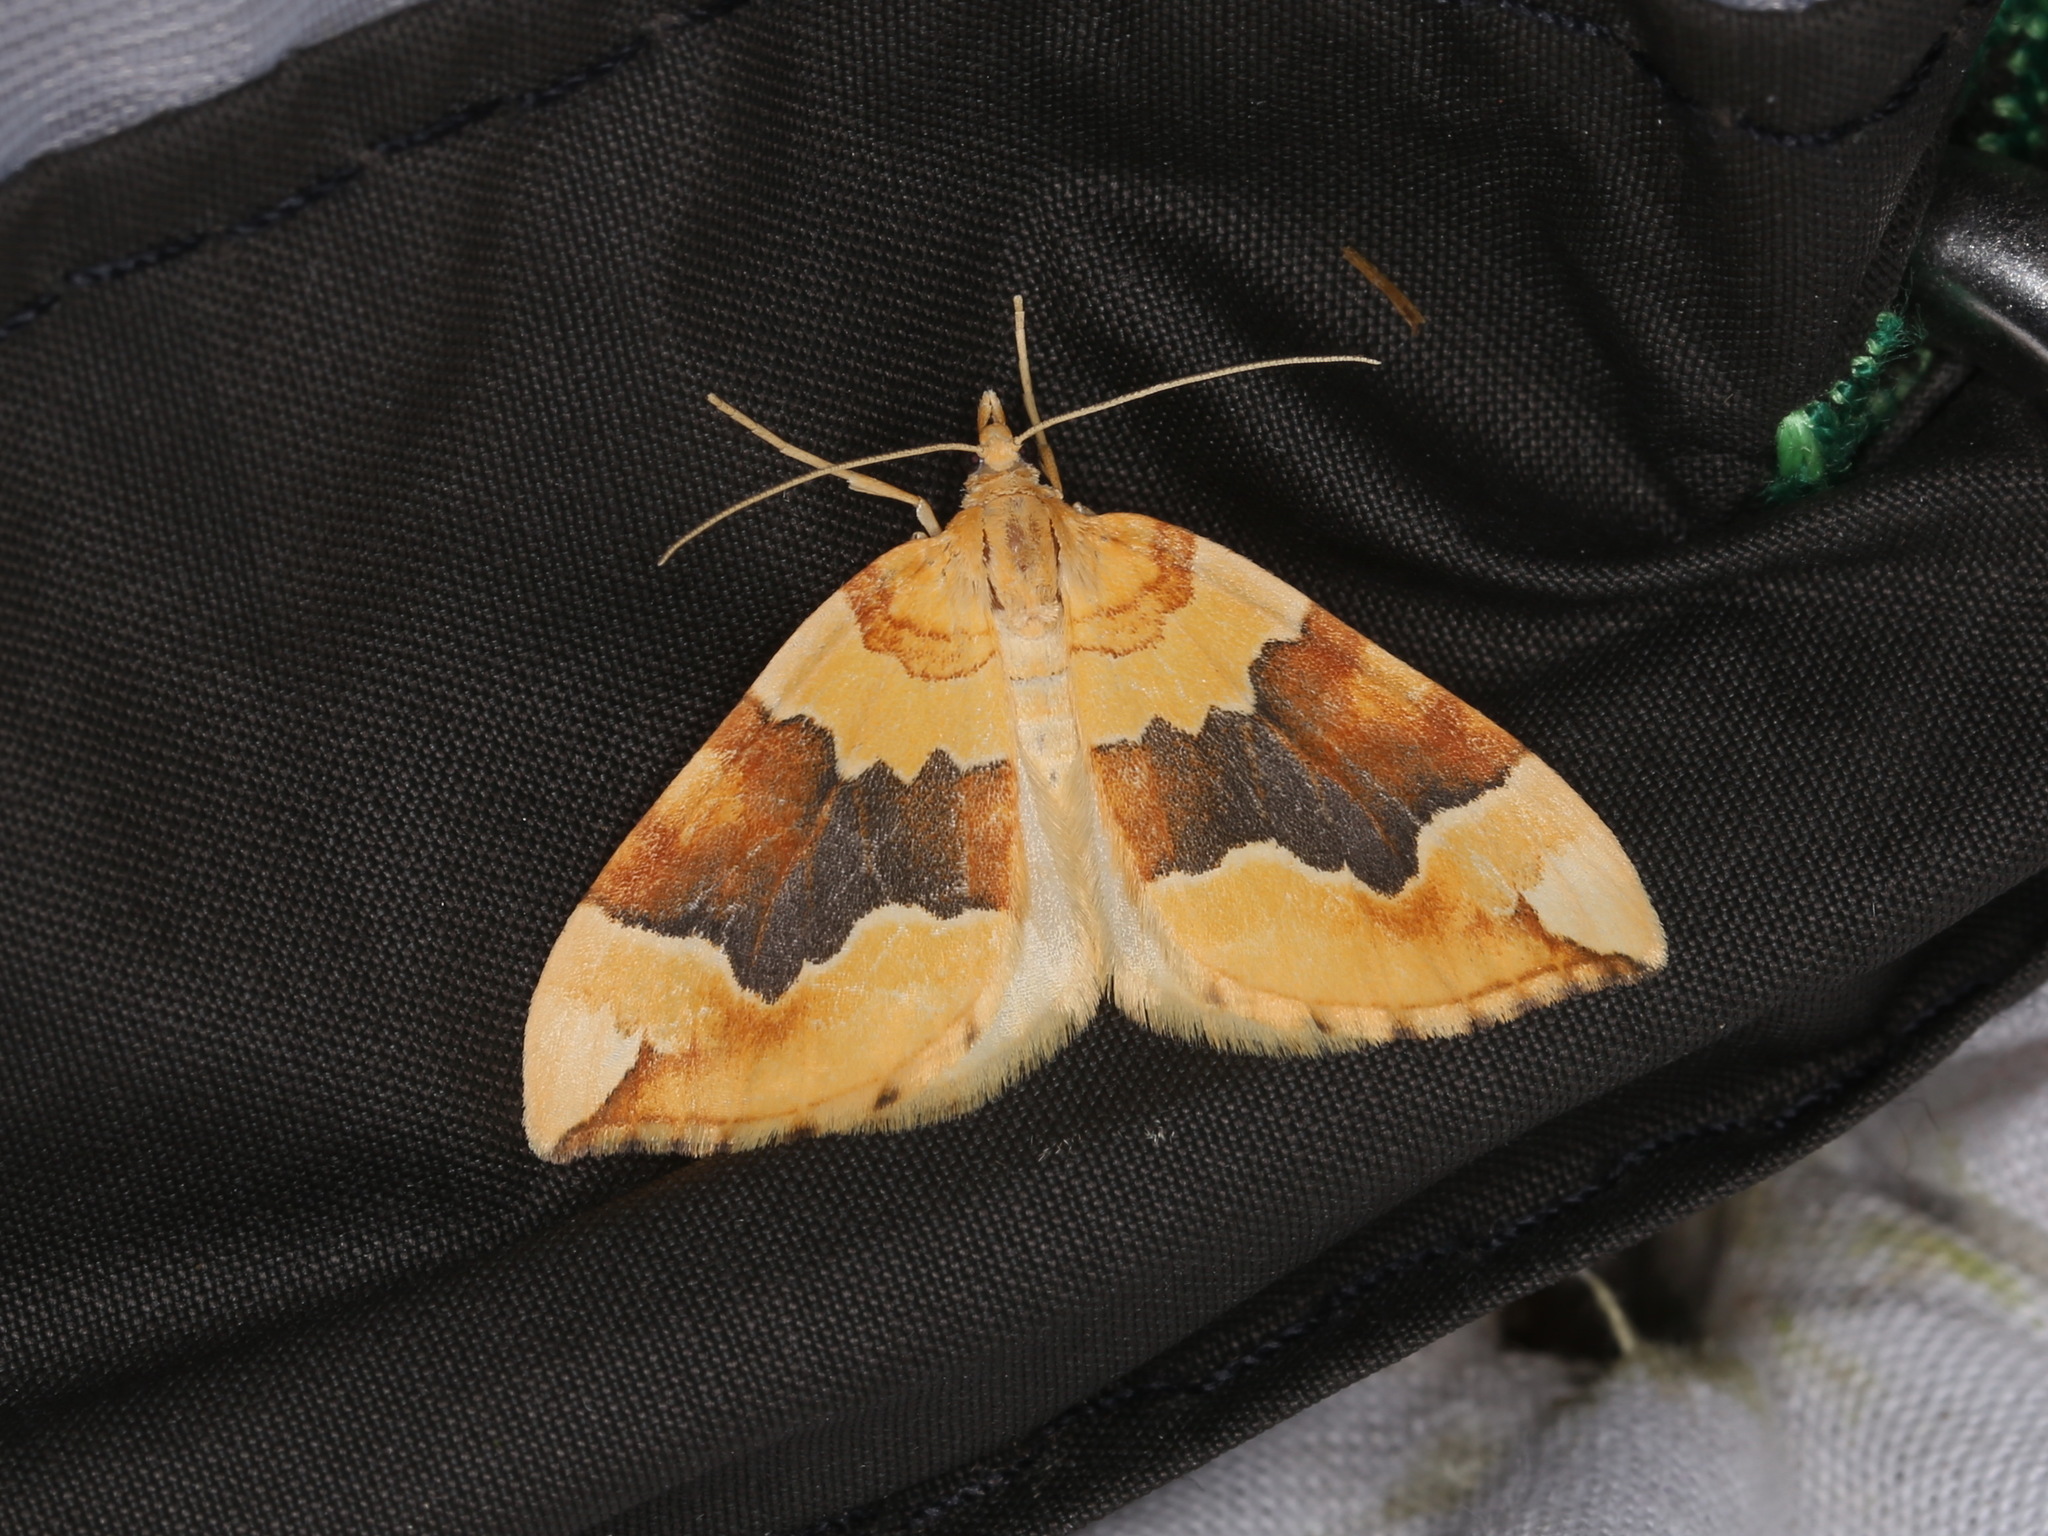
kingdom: Animalia
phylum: Arthropoda
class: Insecta
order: Lepidoptera
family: Geometridae
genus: Cidaria
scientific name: Cidaria fulvata
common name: Barred yellow
